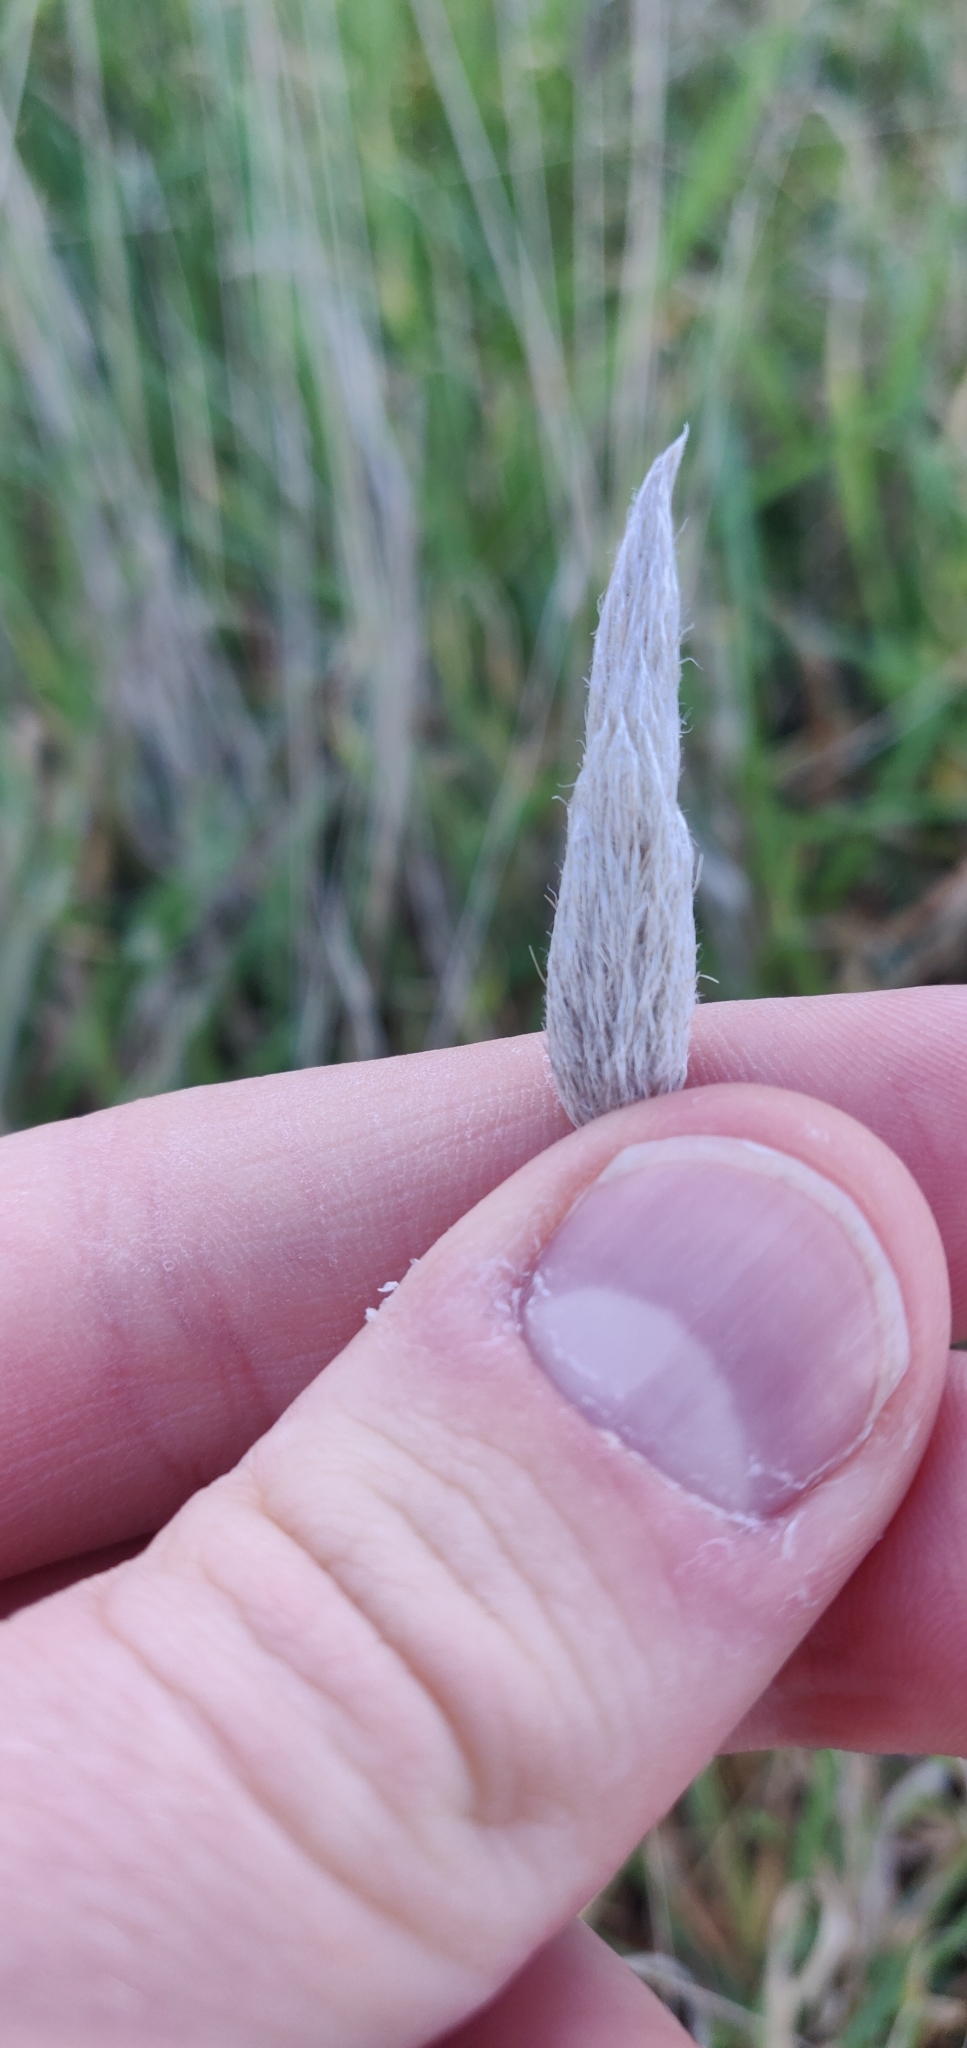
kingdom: Plantae
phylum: Tracheophyta
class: Liliopsida
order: Poales
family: Poaceae
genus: Lagurus
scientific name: Lagurus ovatus
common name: Hare's-tail
